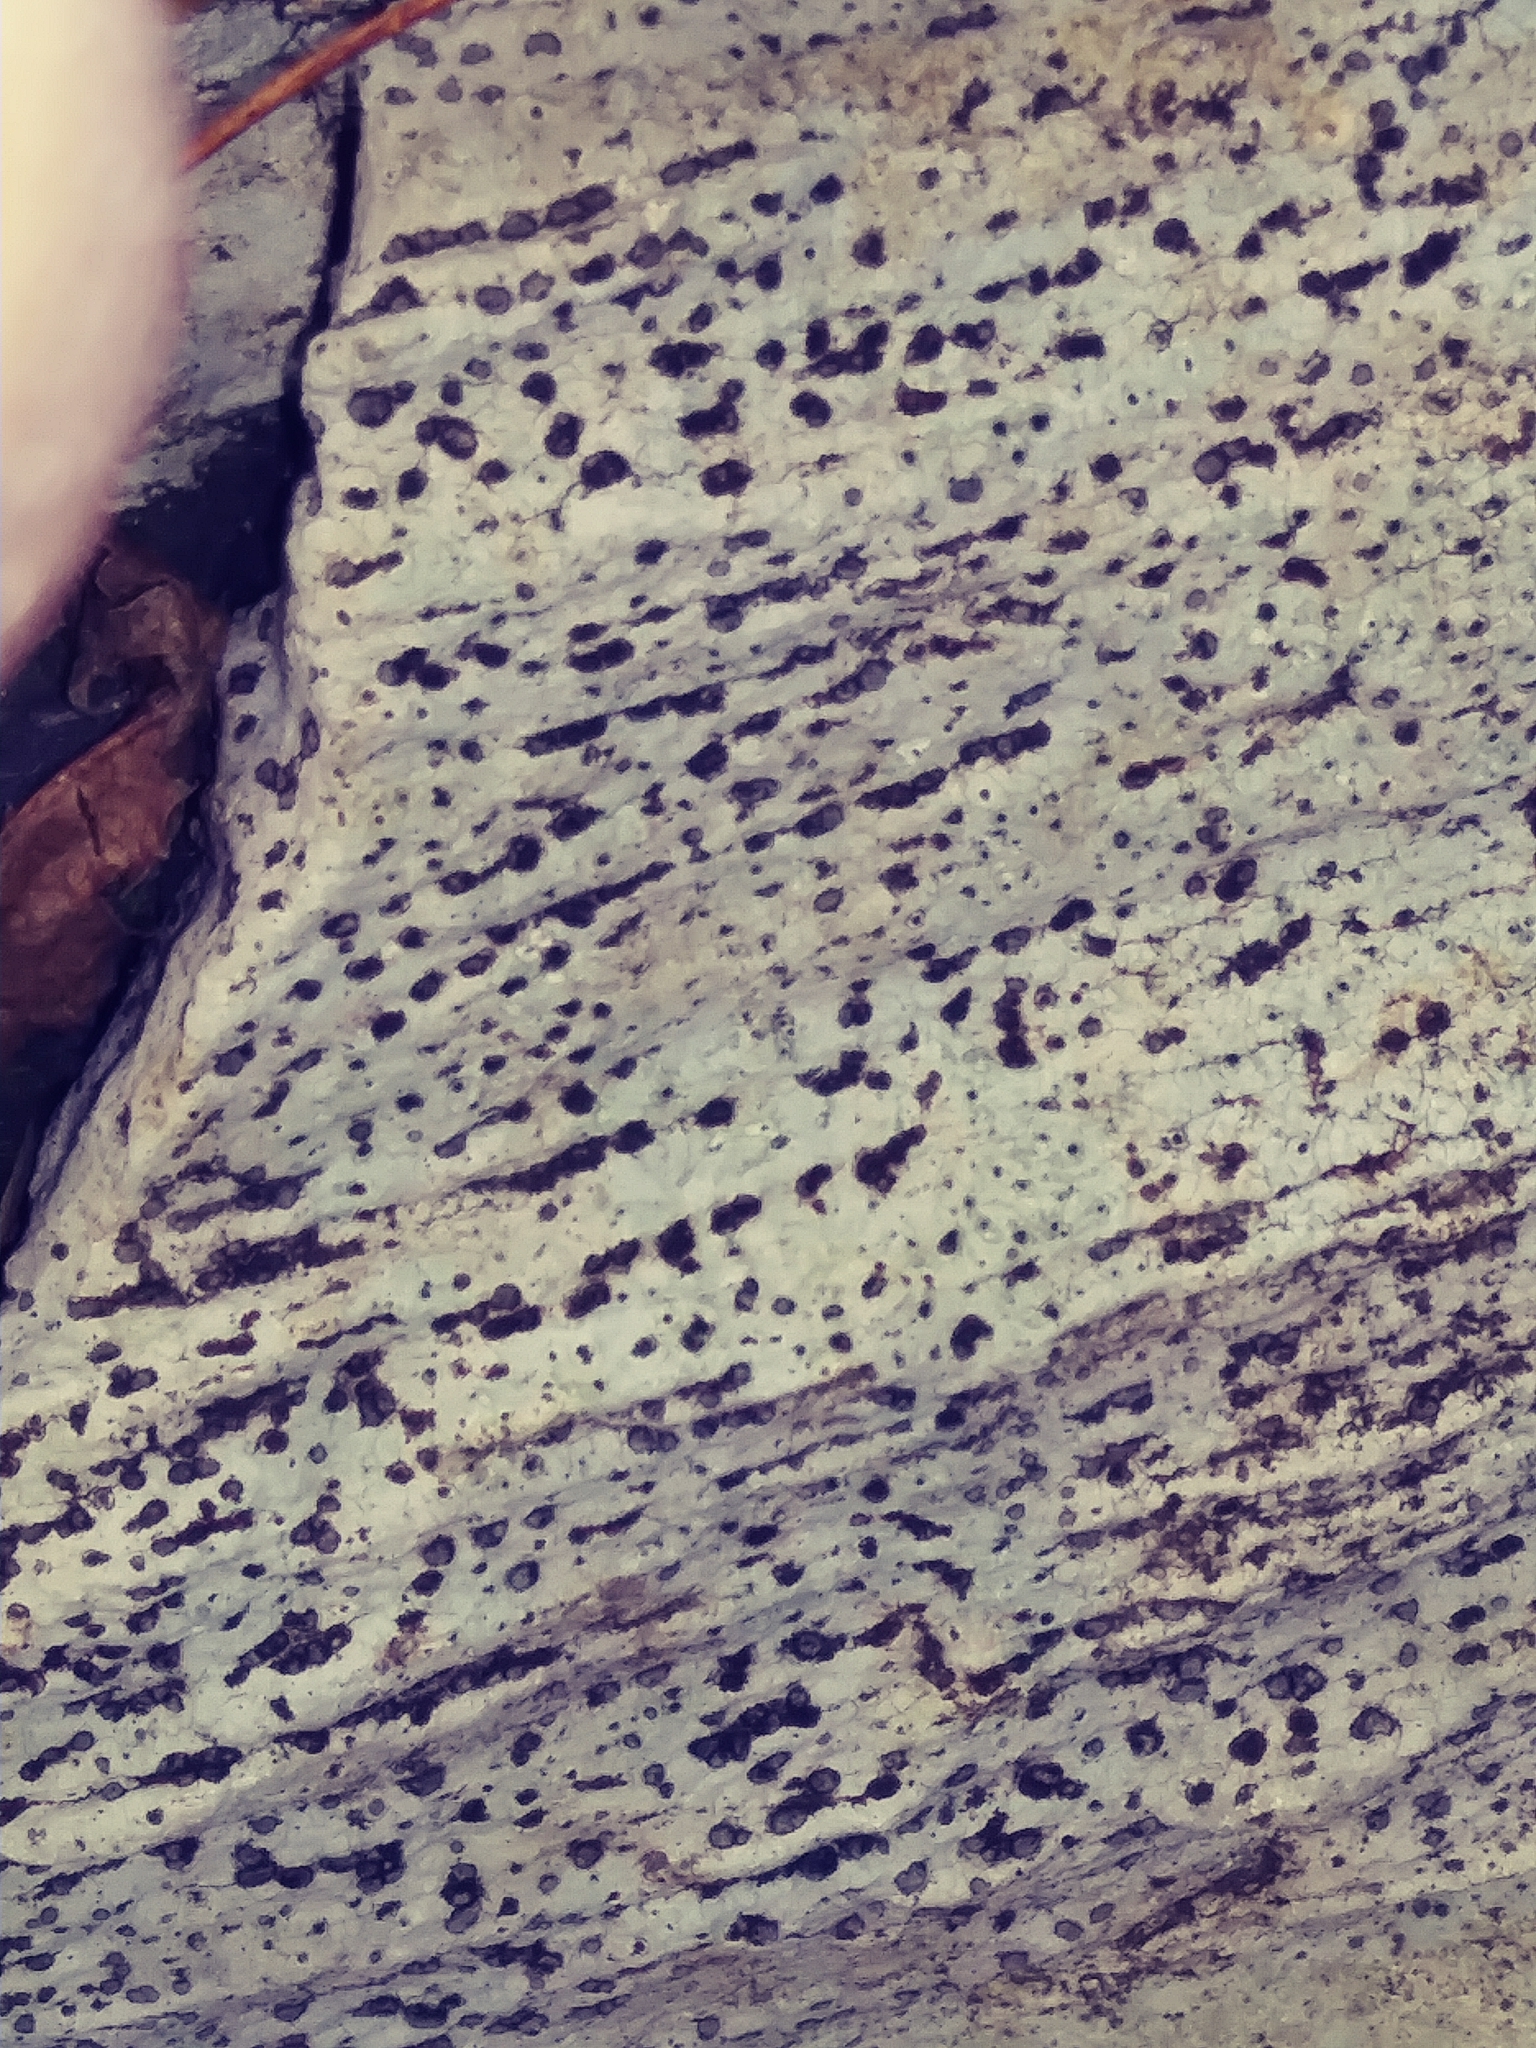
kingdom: Fungi
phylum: Ascomycota
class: Lecanoromycetes
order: Lecideales
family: Lecideaceae
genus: Porpidia
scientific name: Porpidia albocaerulescens
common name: Smokey-eyed boulder lichen
